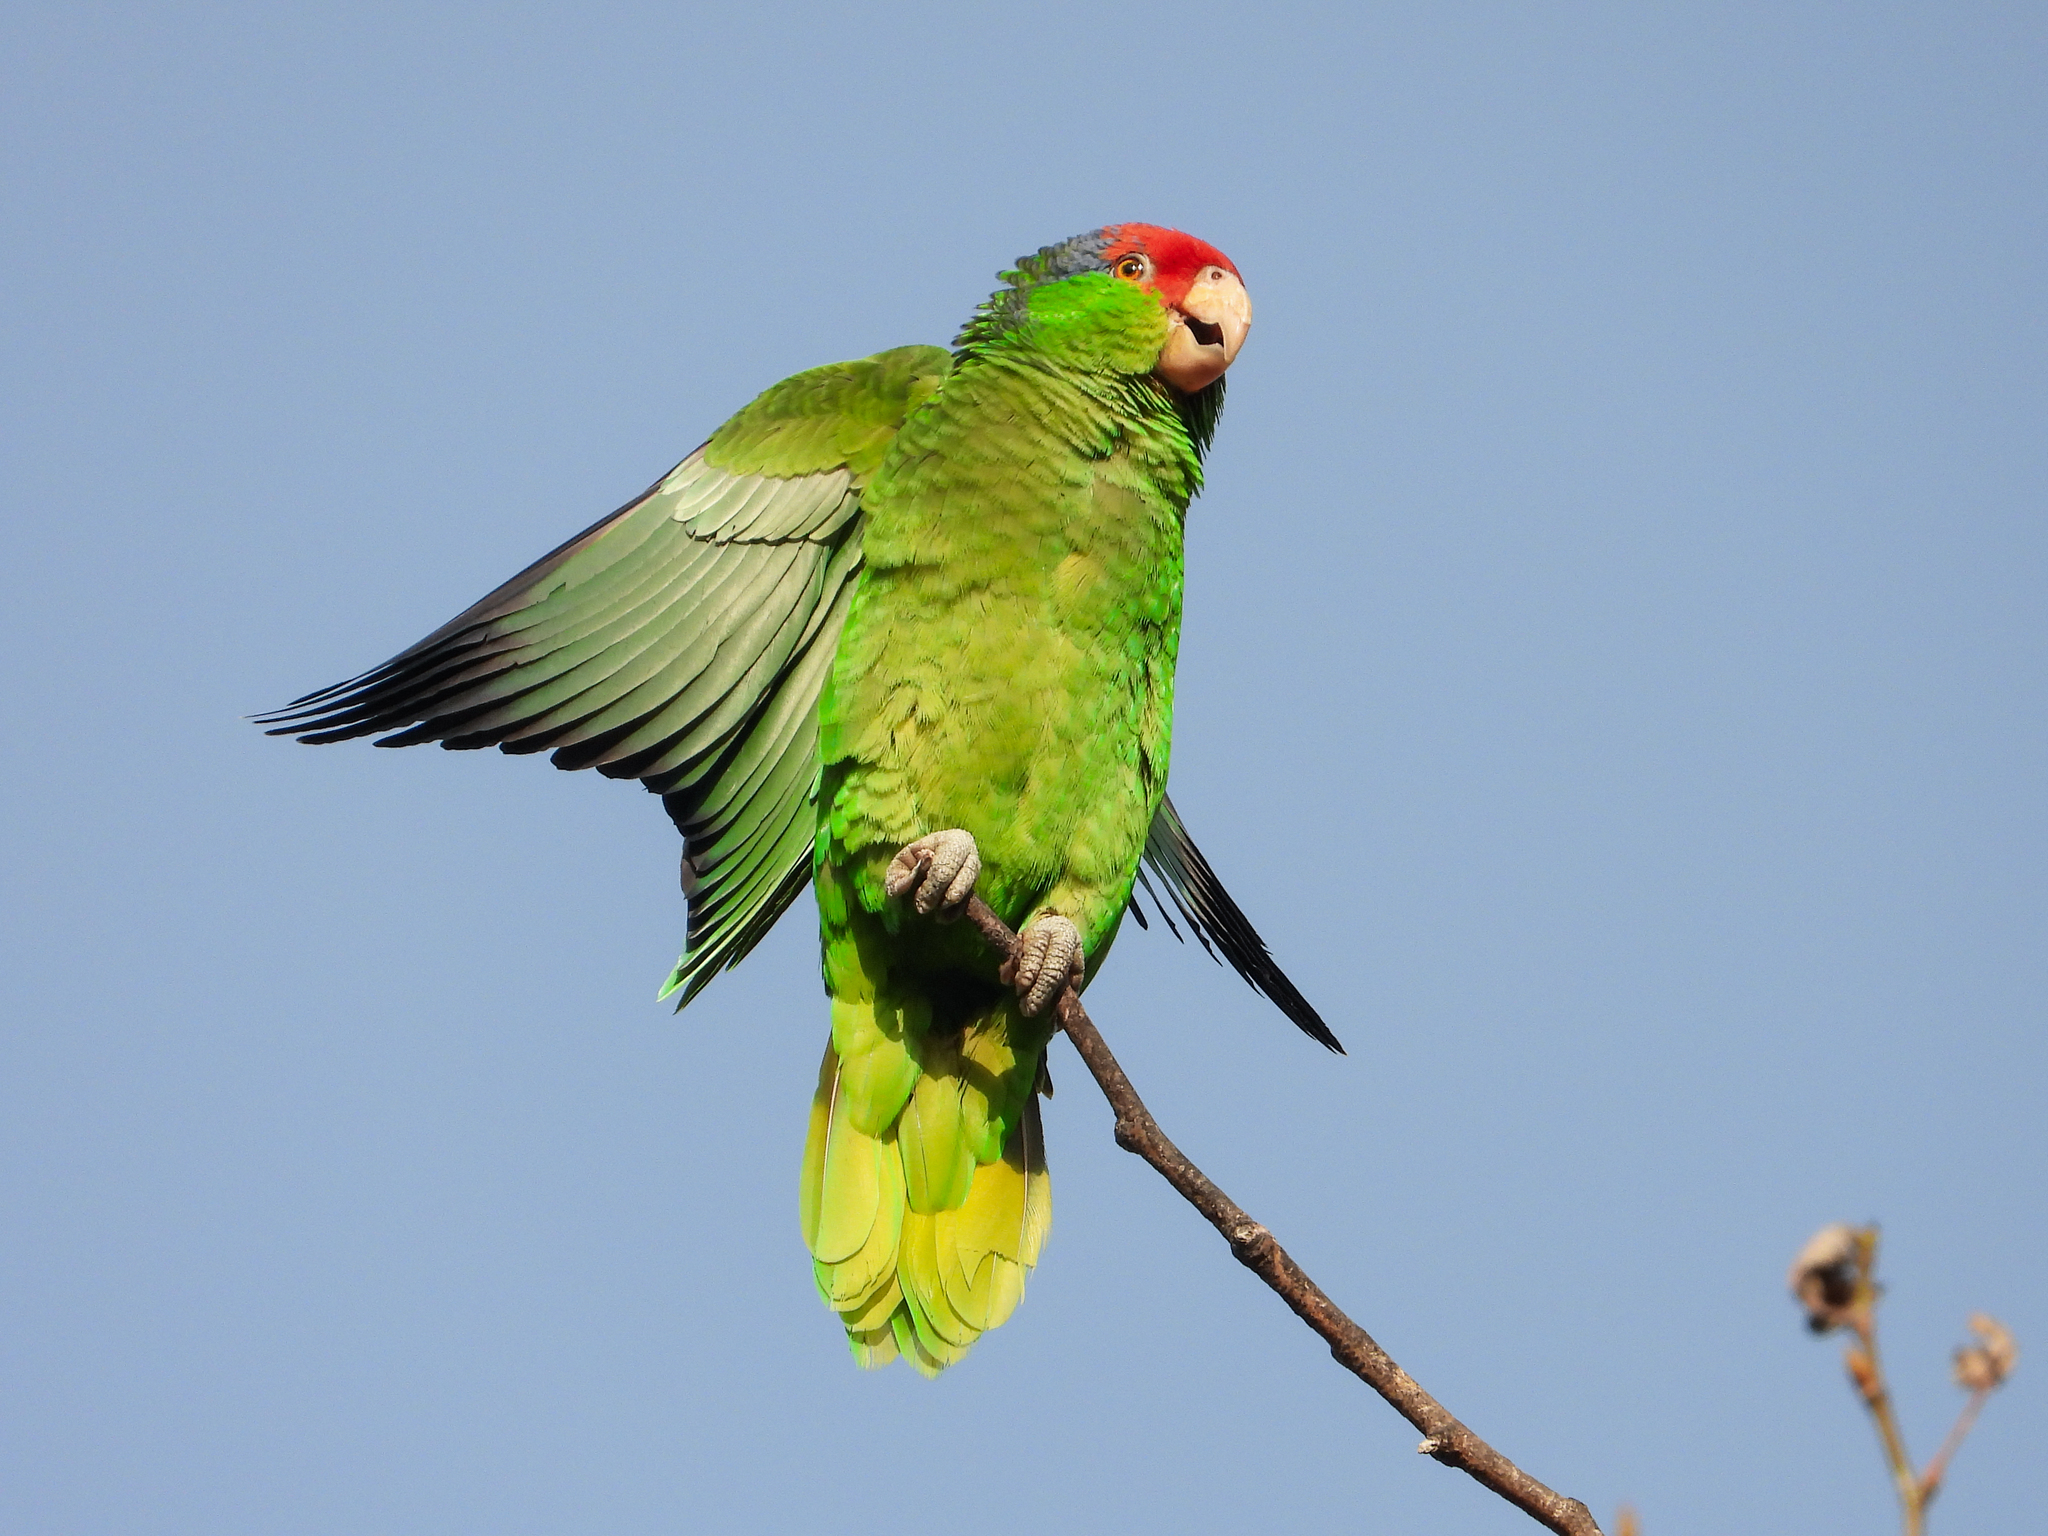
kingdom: Animalia
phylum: Chordata
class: Aves
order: Psittaciformes
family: Psittacidae
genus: Amazona
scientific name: Amazona viridigenalis
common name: Red-crowned amazon
